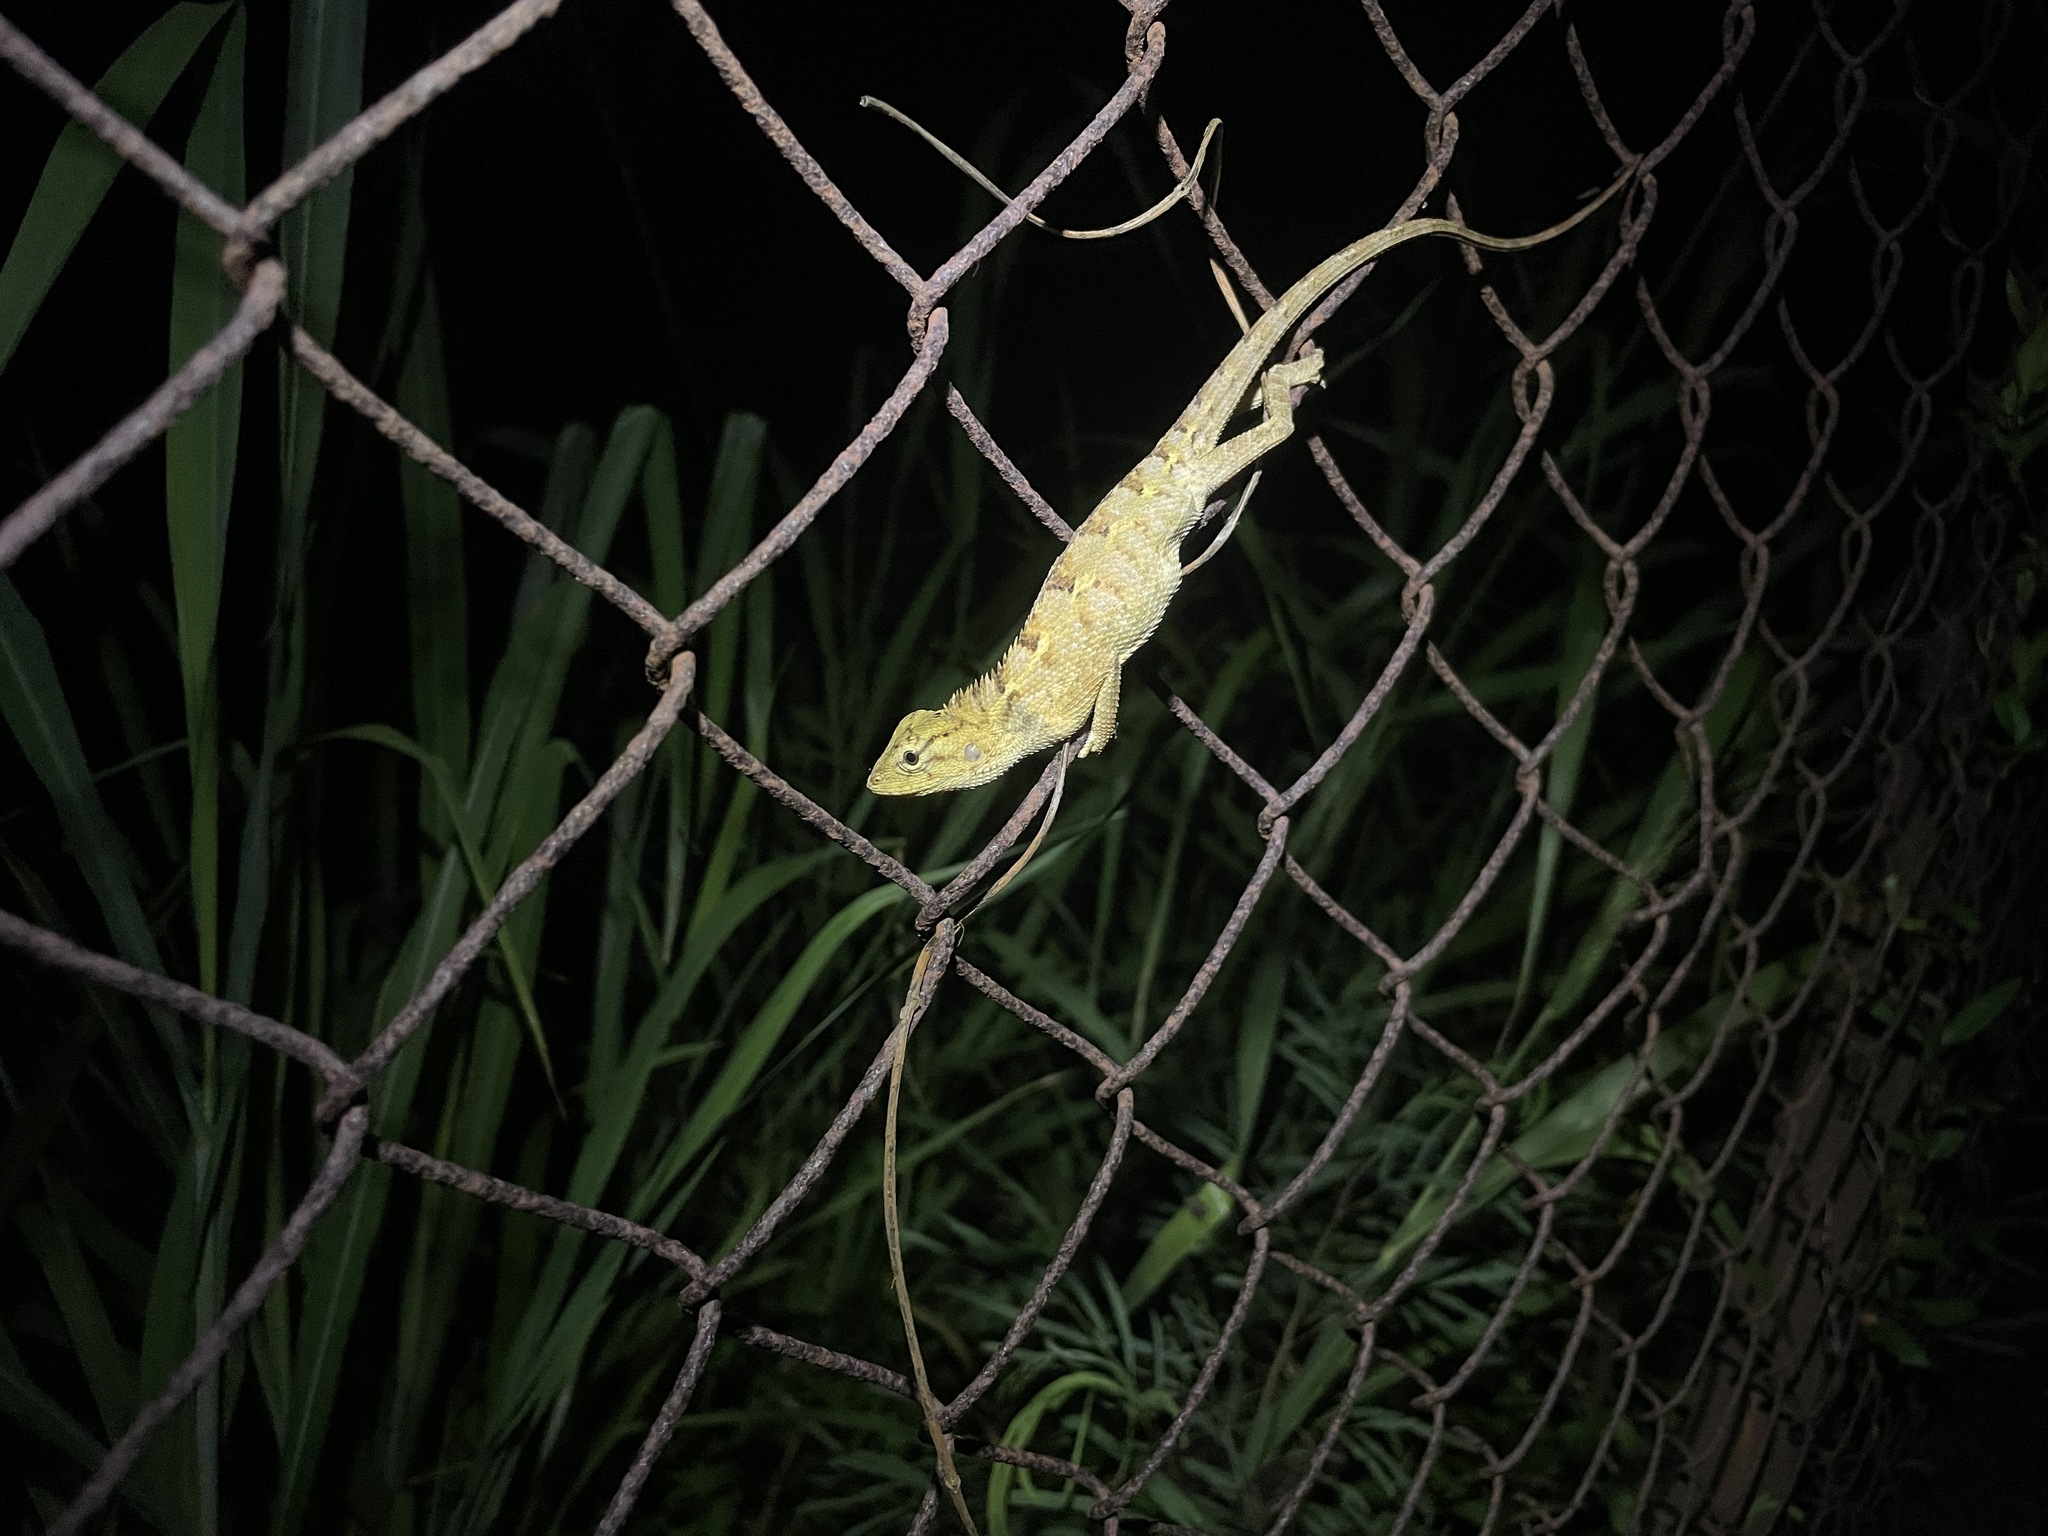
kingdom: Animalia
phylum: Chordata
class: Squamata
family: Agamidae
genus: Calotes
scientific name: Calotes versicolor
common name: Oriental garden lizard
